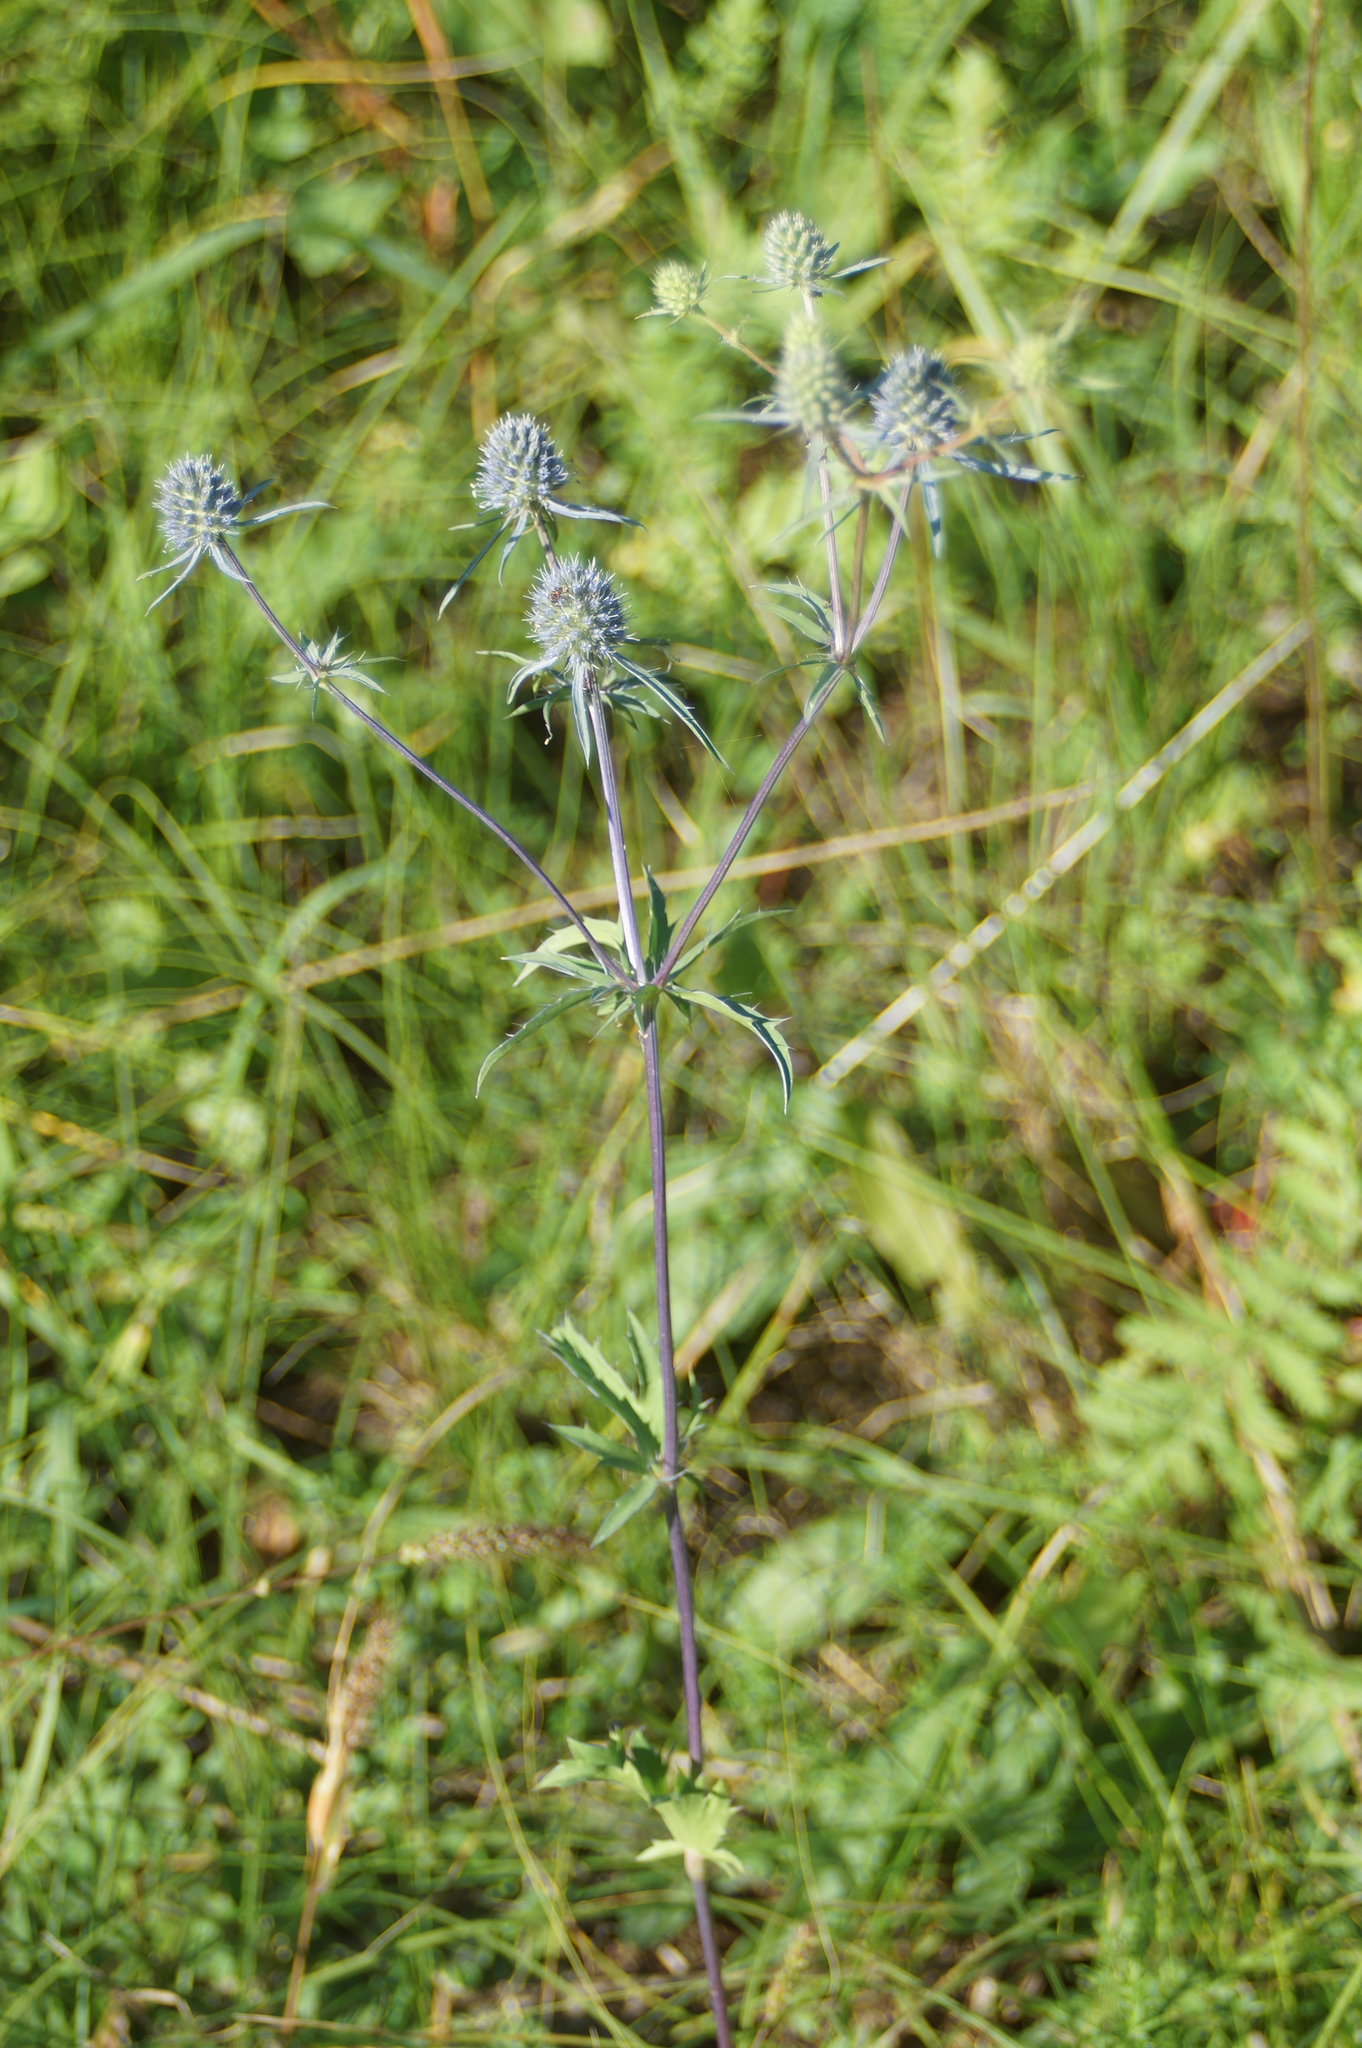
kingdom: Plantae
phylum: Tracheophyta
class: Magnoliopsida
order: Apiales
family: Apiaceae
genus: Eryngium
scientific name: Eryngium planum
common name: Blue eryngo
